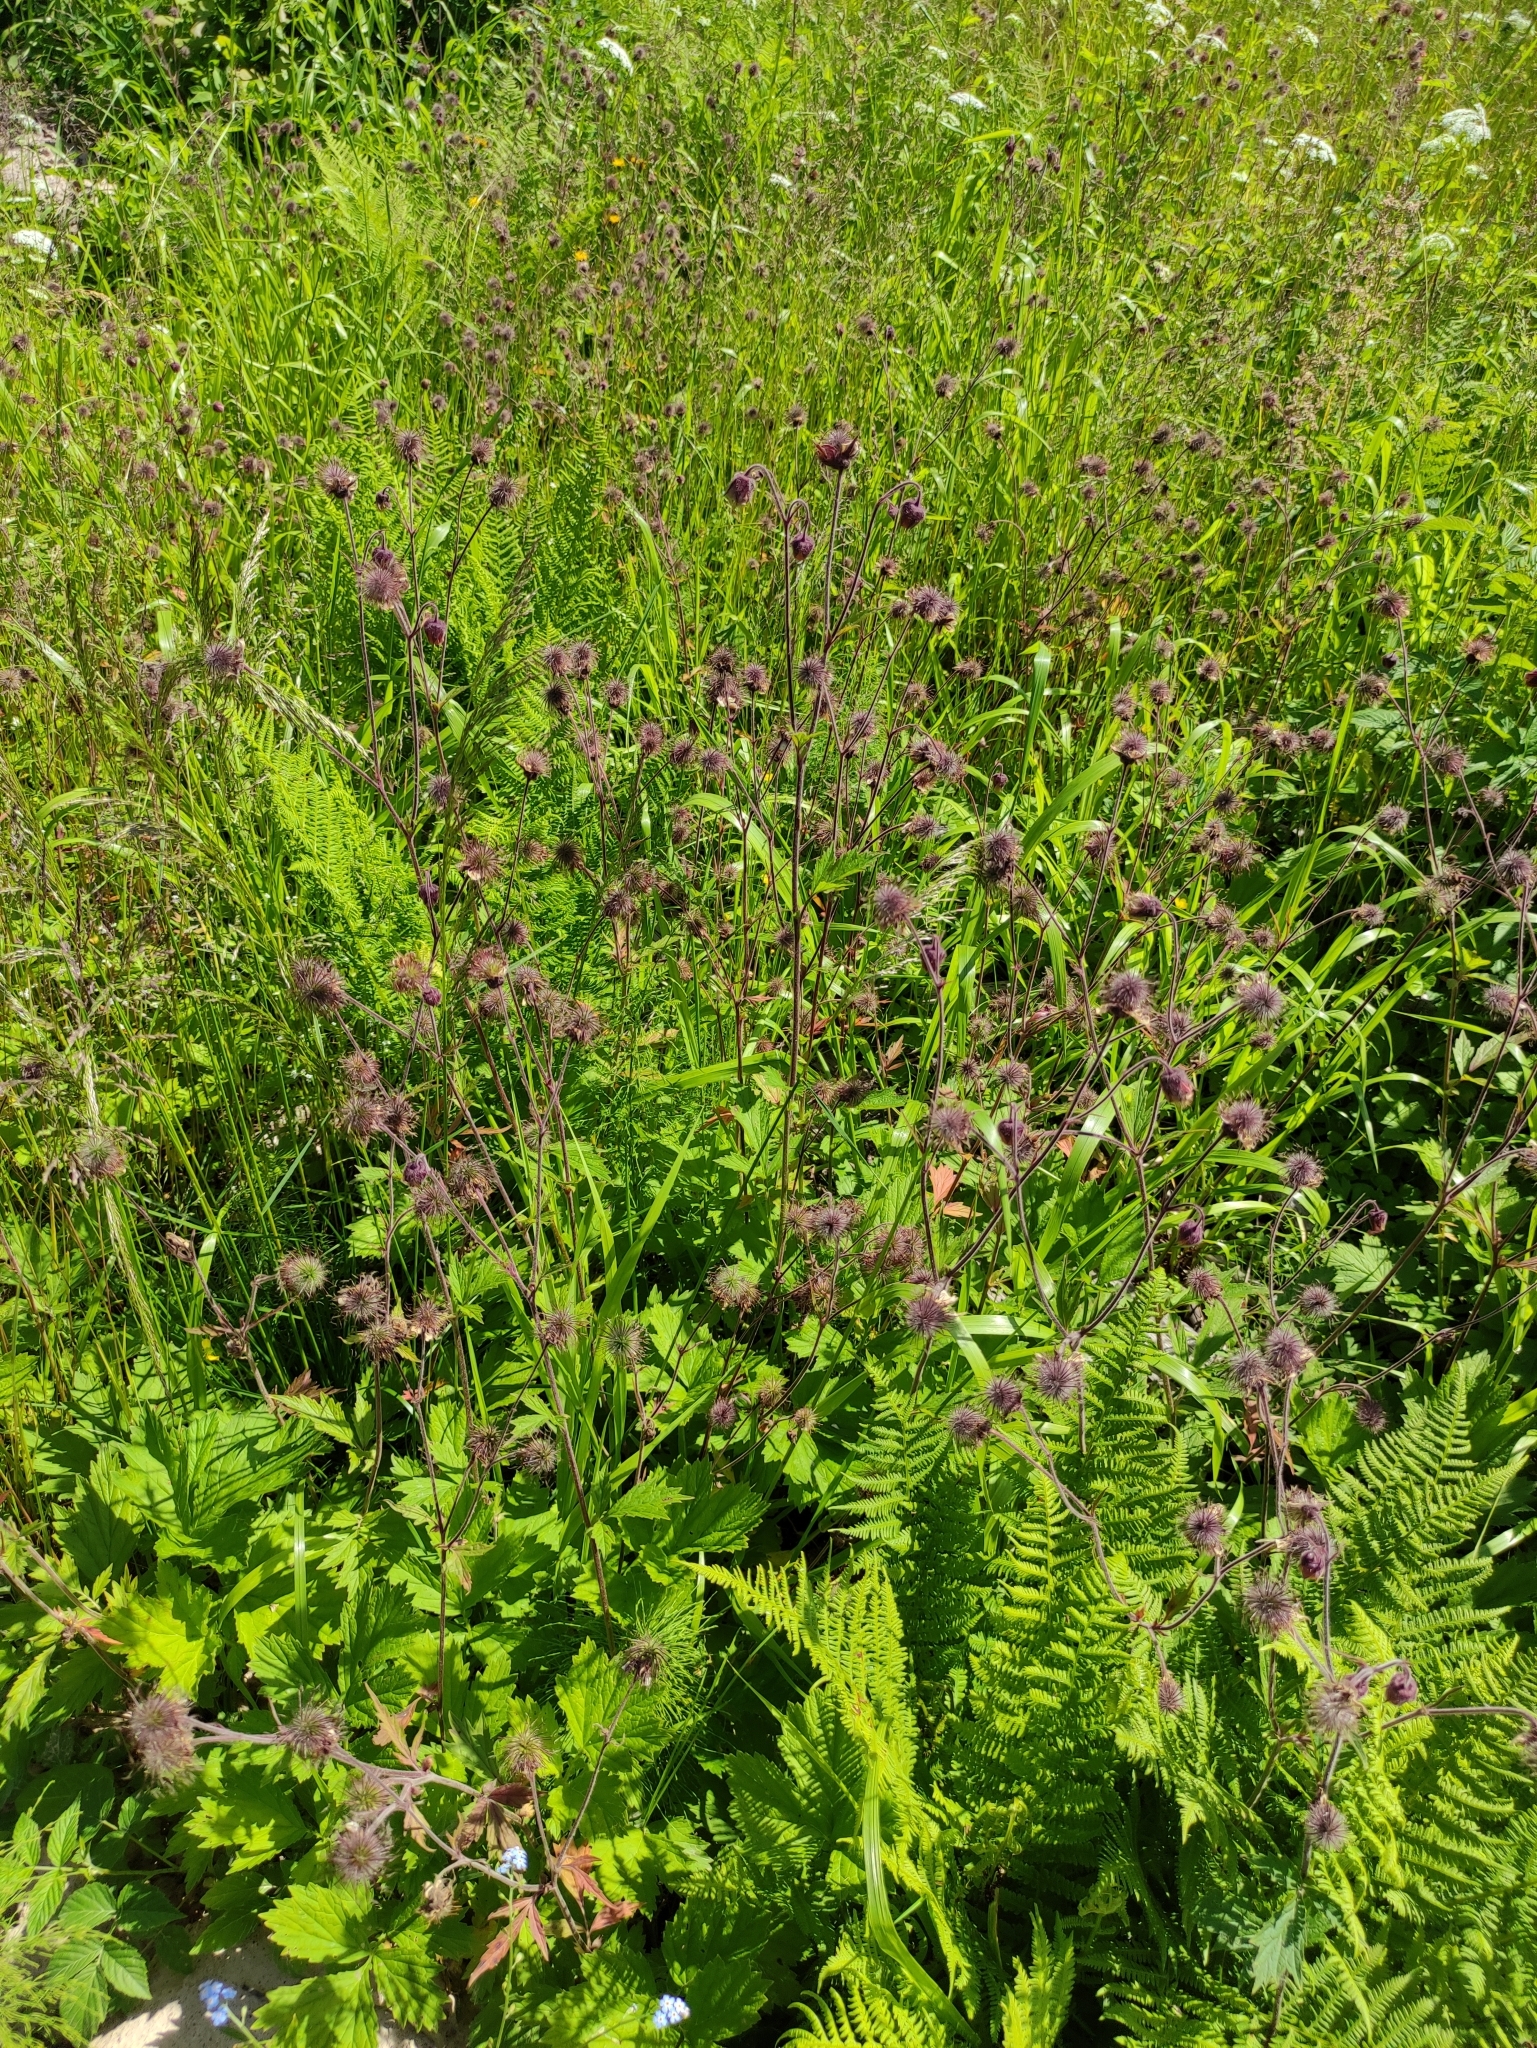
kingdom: Plantae
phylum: Tracheophyta
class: Magnoliopsida
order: Rosales
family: Rosaceae
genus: Geum
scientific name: Geum rivale
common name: Water avens
